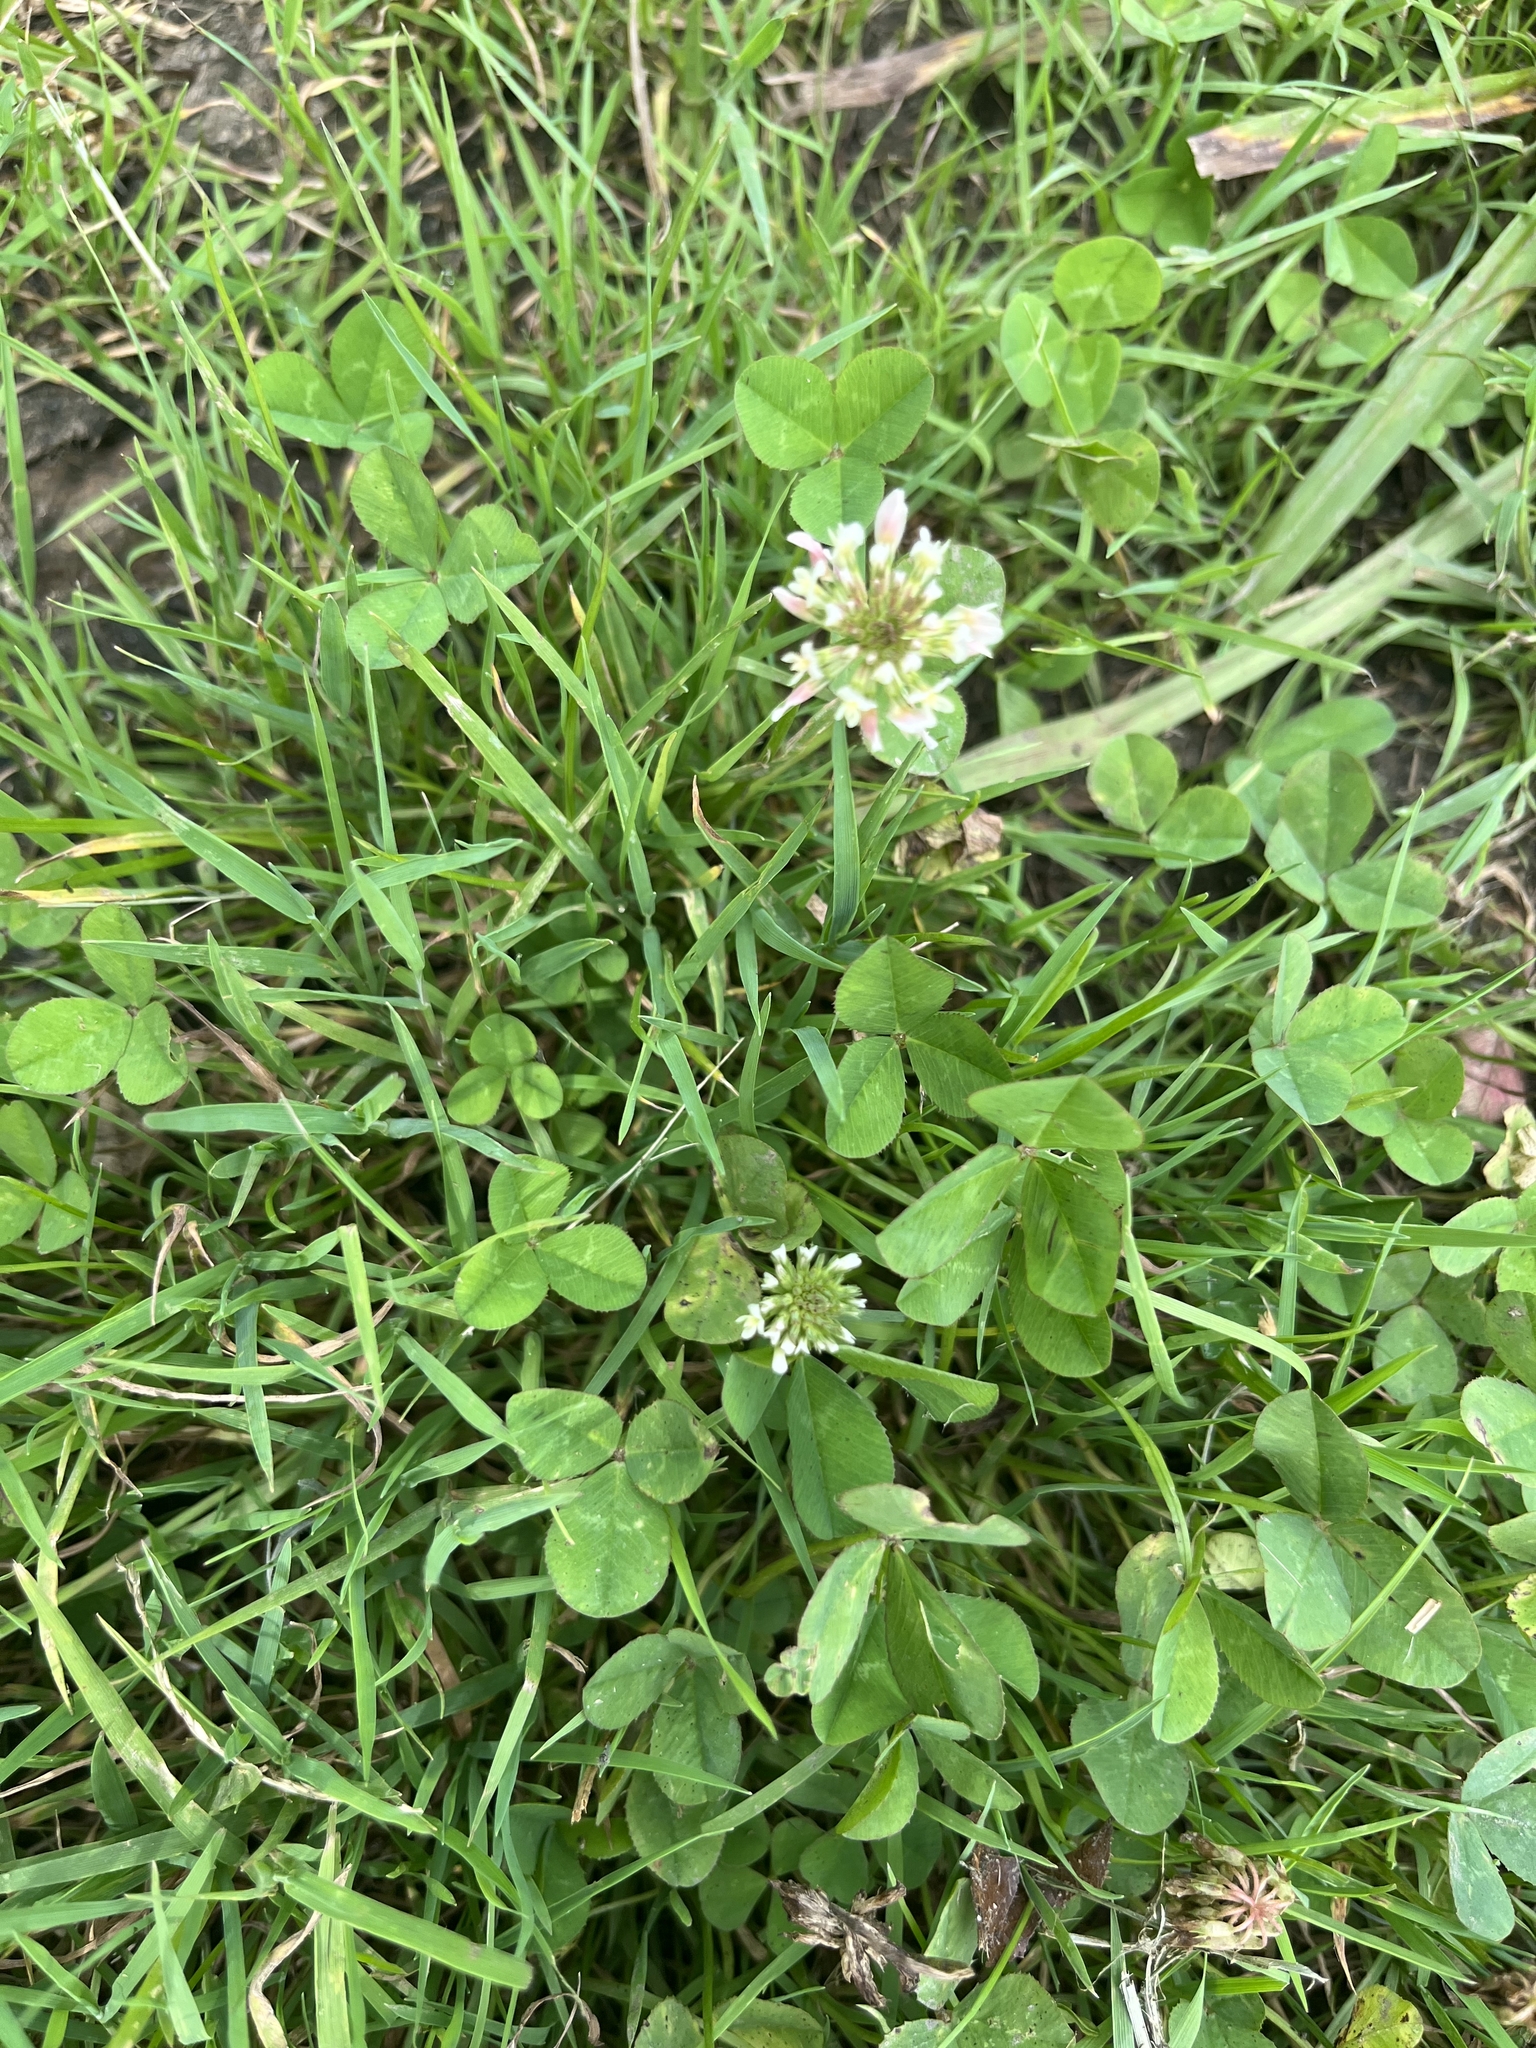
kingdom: Plantae
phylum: Tracheophyta
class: Magnoliopsida
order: Fabales
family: Fabaceae
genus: Trifolium
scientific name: Trifolium repens
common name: White clover
